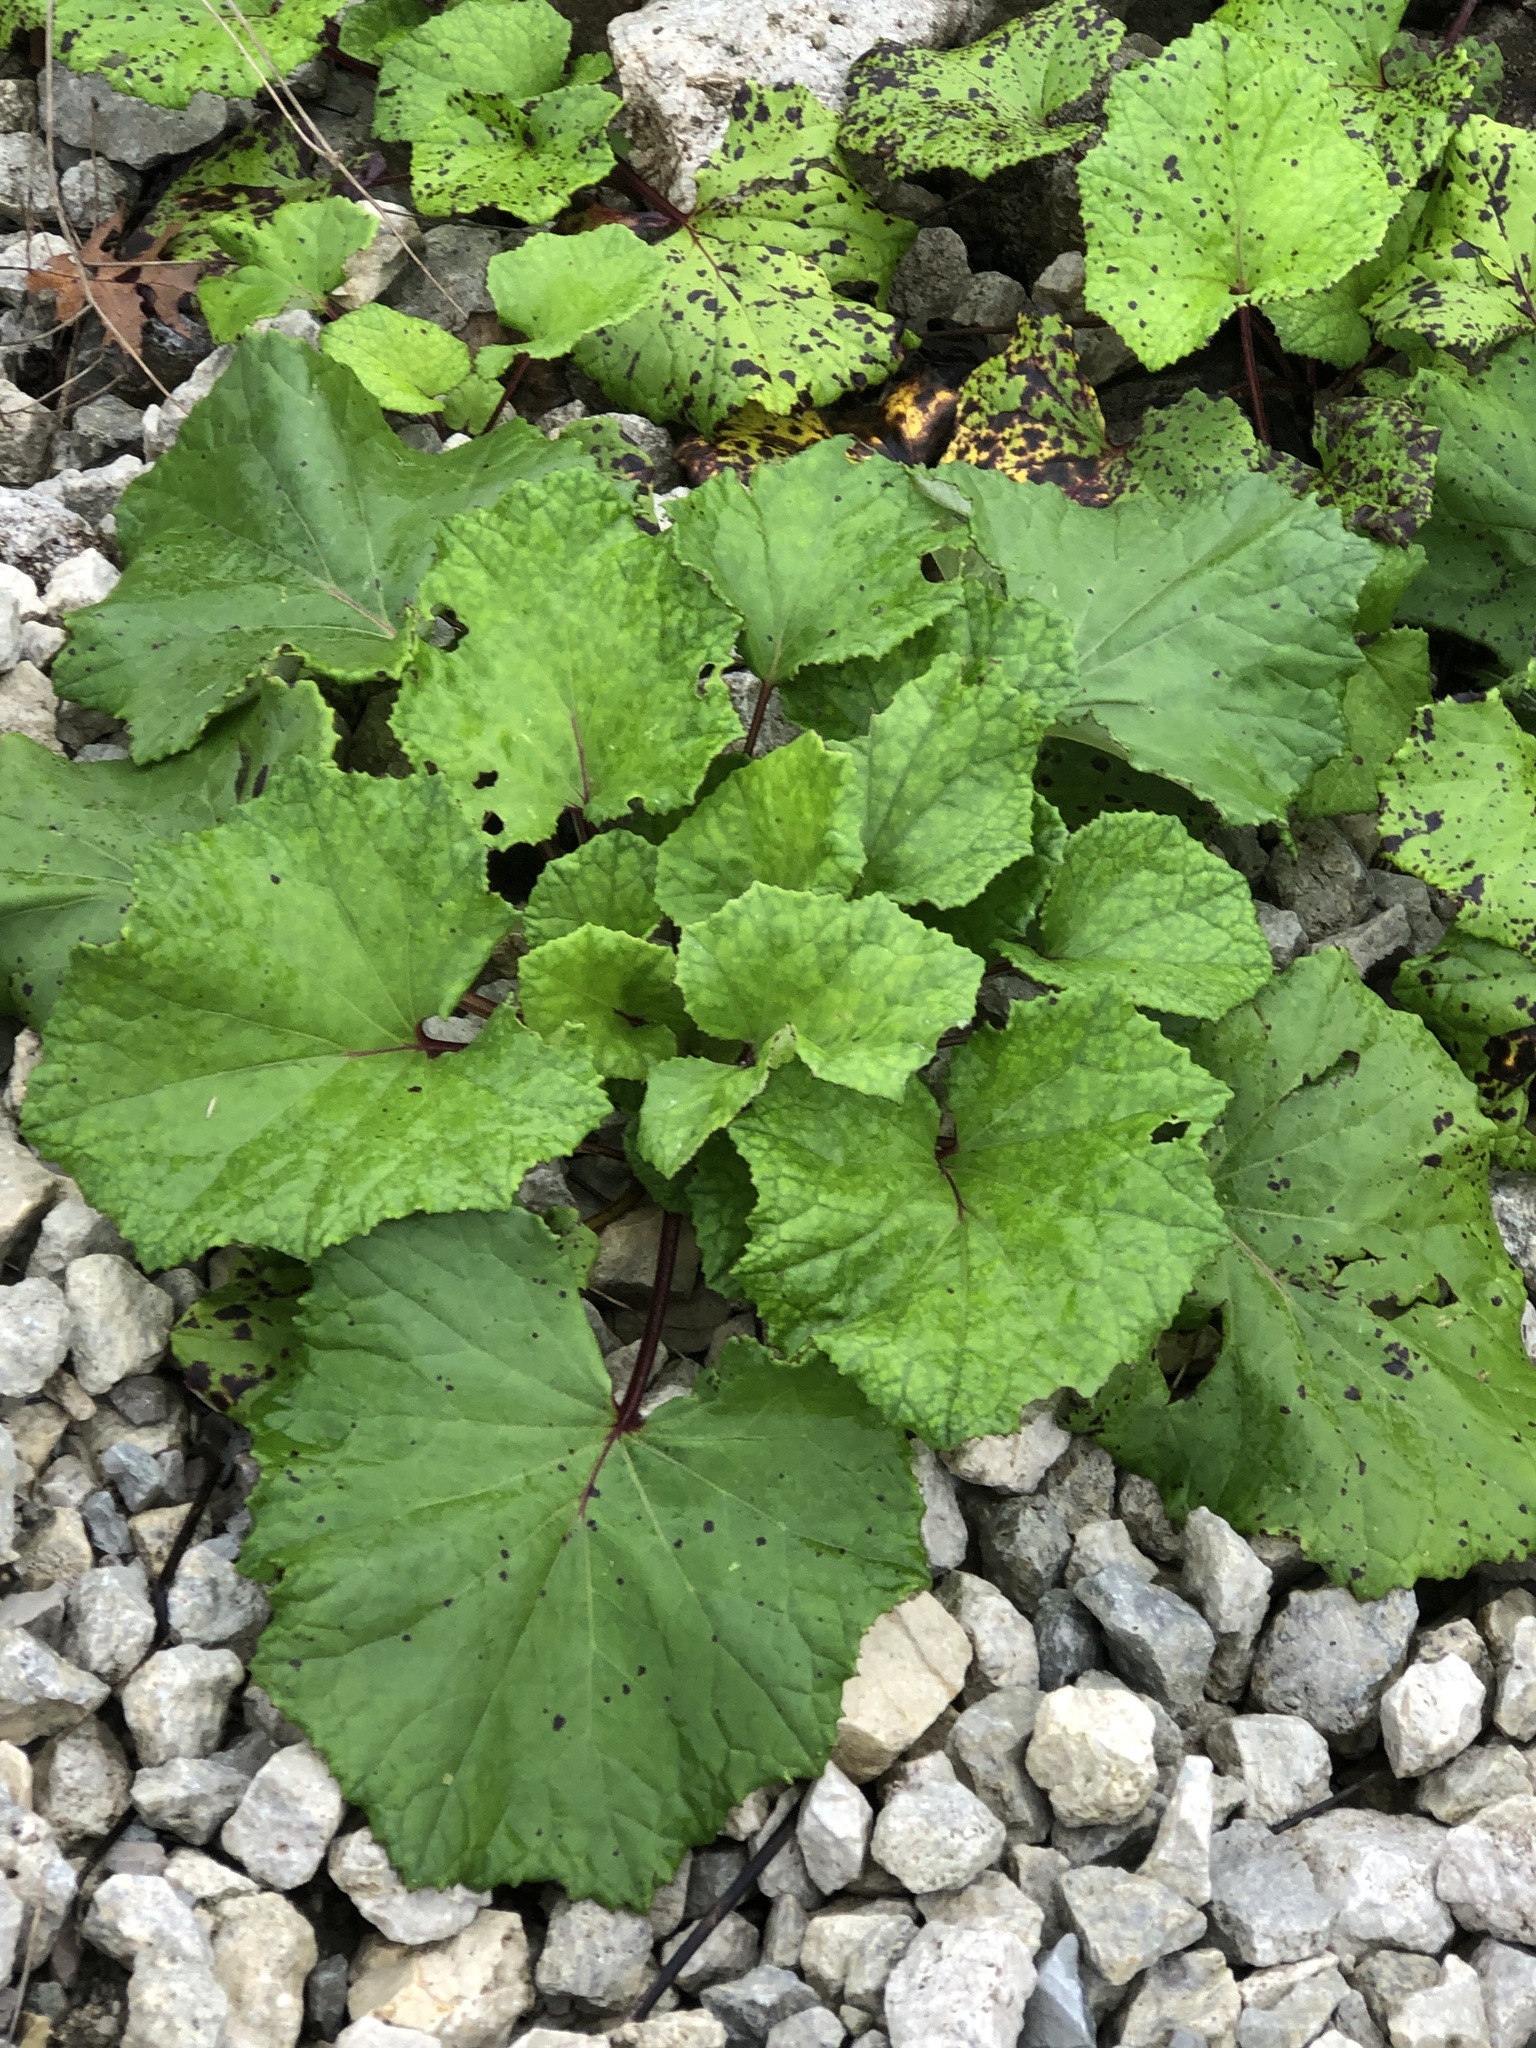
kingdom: Plantae
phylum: Tracheophyta
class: Magnoliopsida
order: Asterales
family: Asteraceae
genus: Tussilago
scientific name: Tussilago farfara
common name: Coltsfoot
